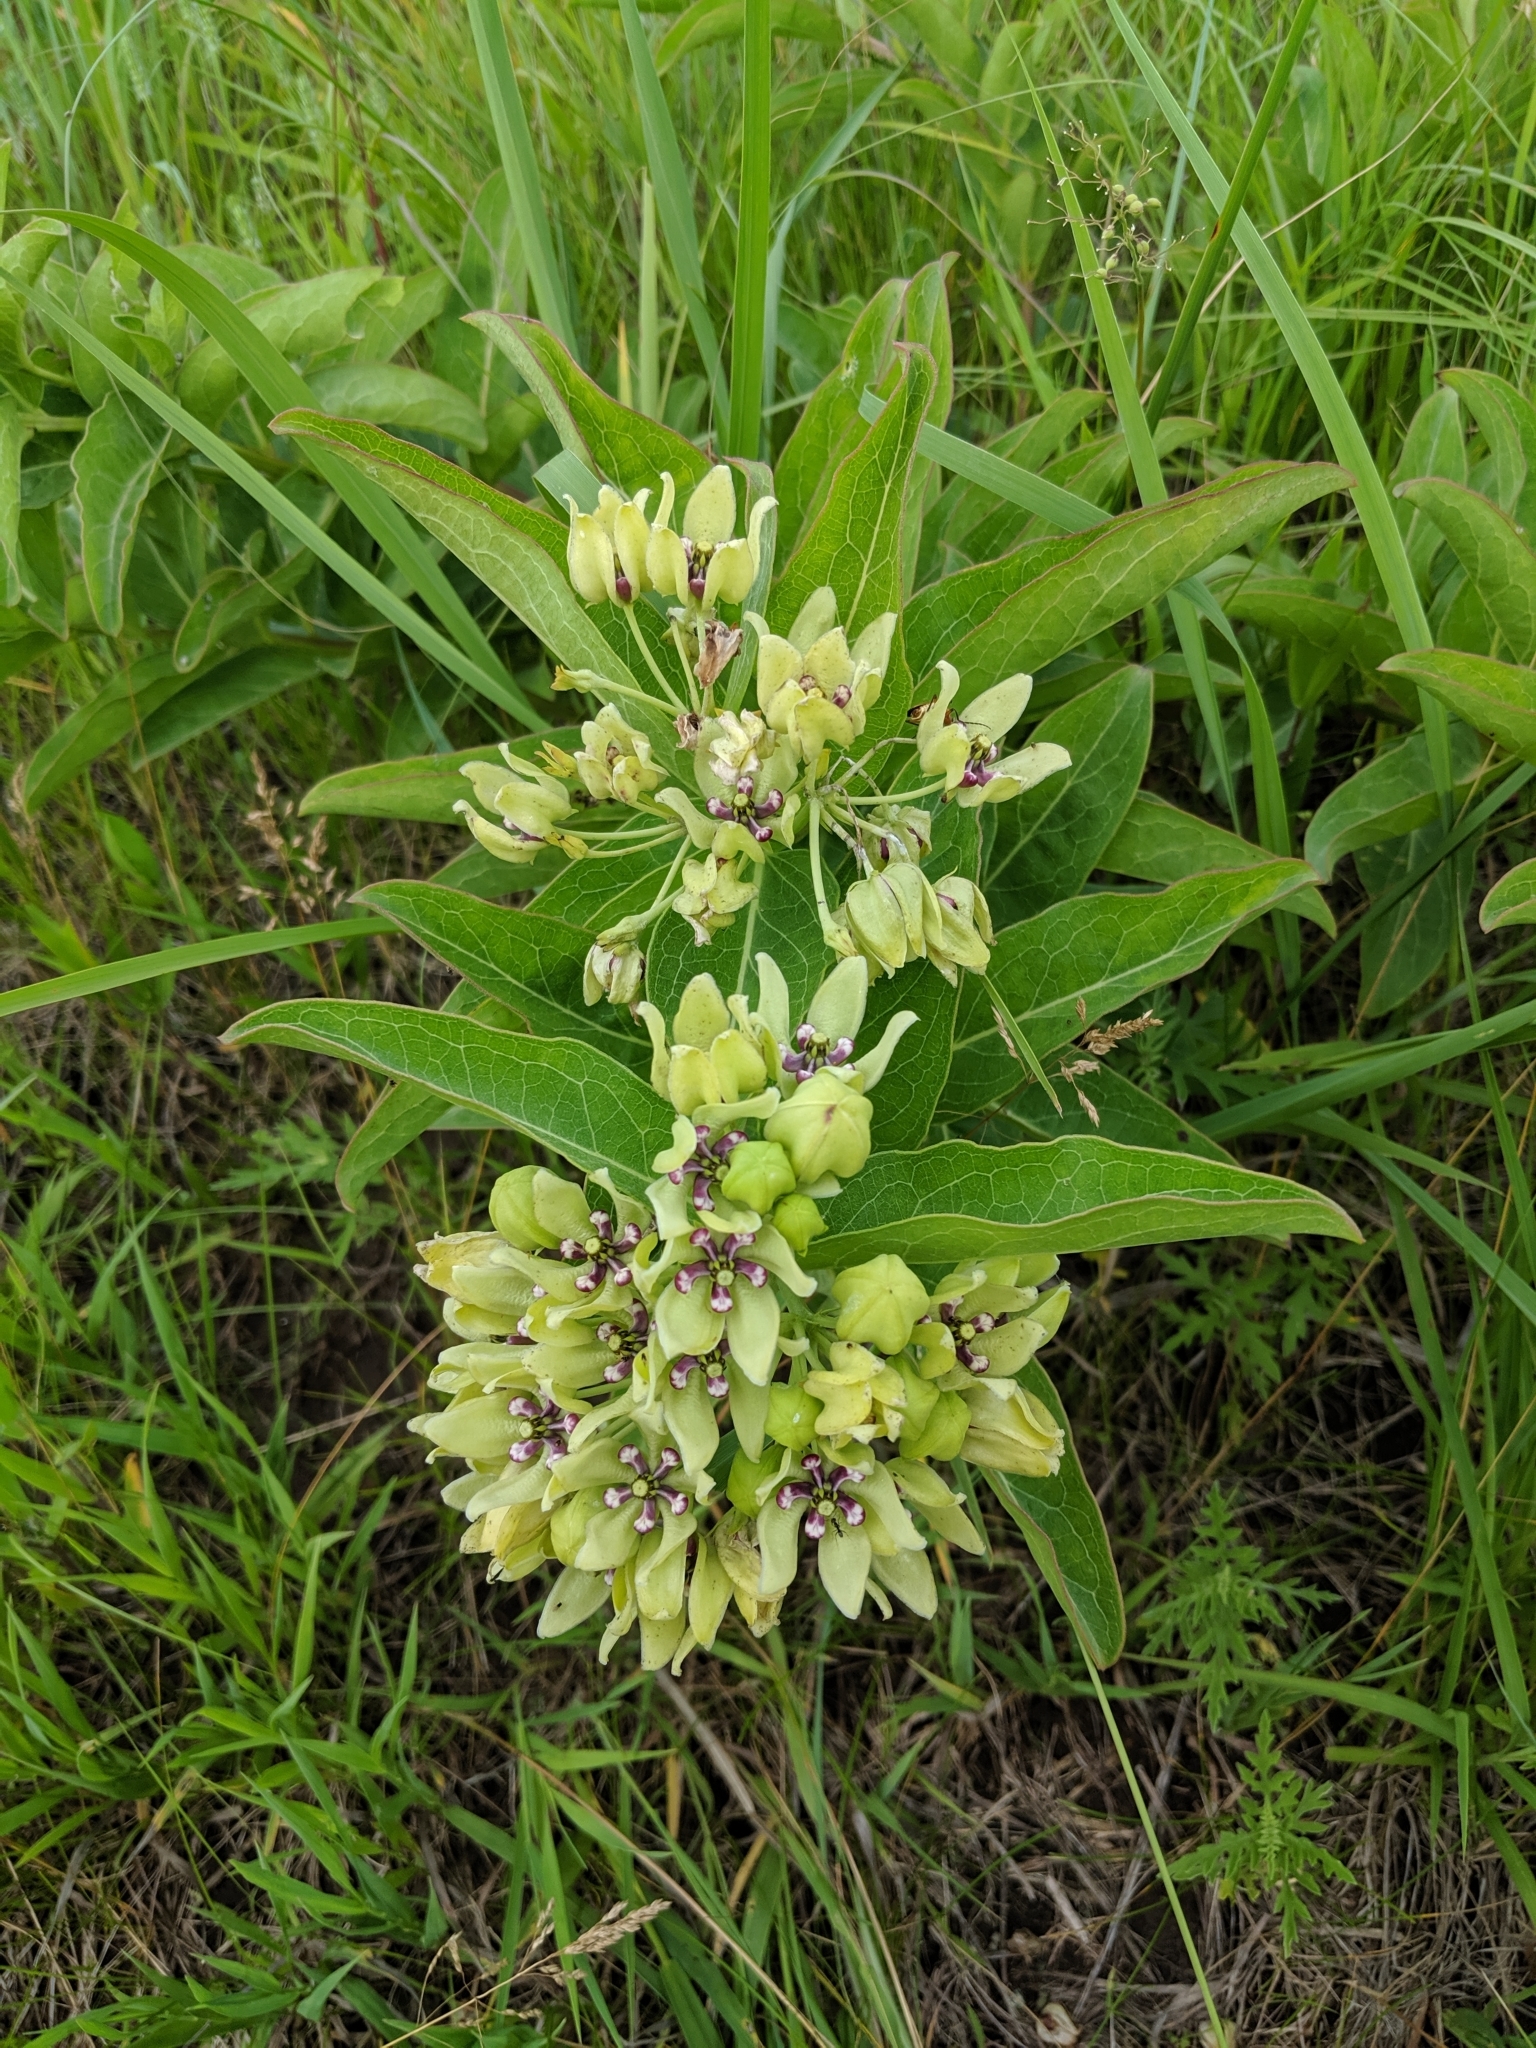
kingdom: Plantae
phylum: Tracheophyta
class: Magnoliopsida
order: Gentianales
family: Apocynaceae
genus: Asclepias
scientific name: Asclepias viridis
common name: Antelope-horns
